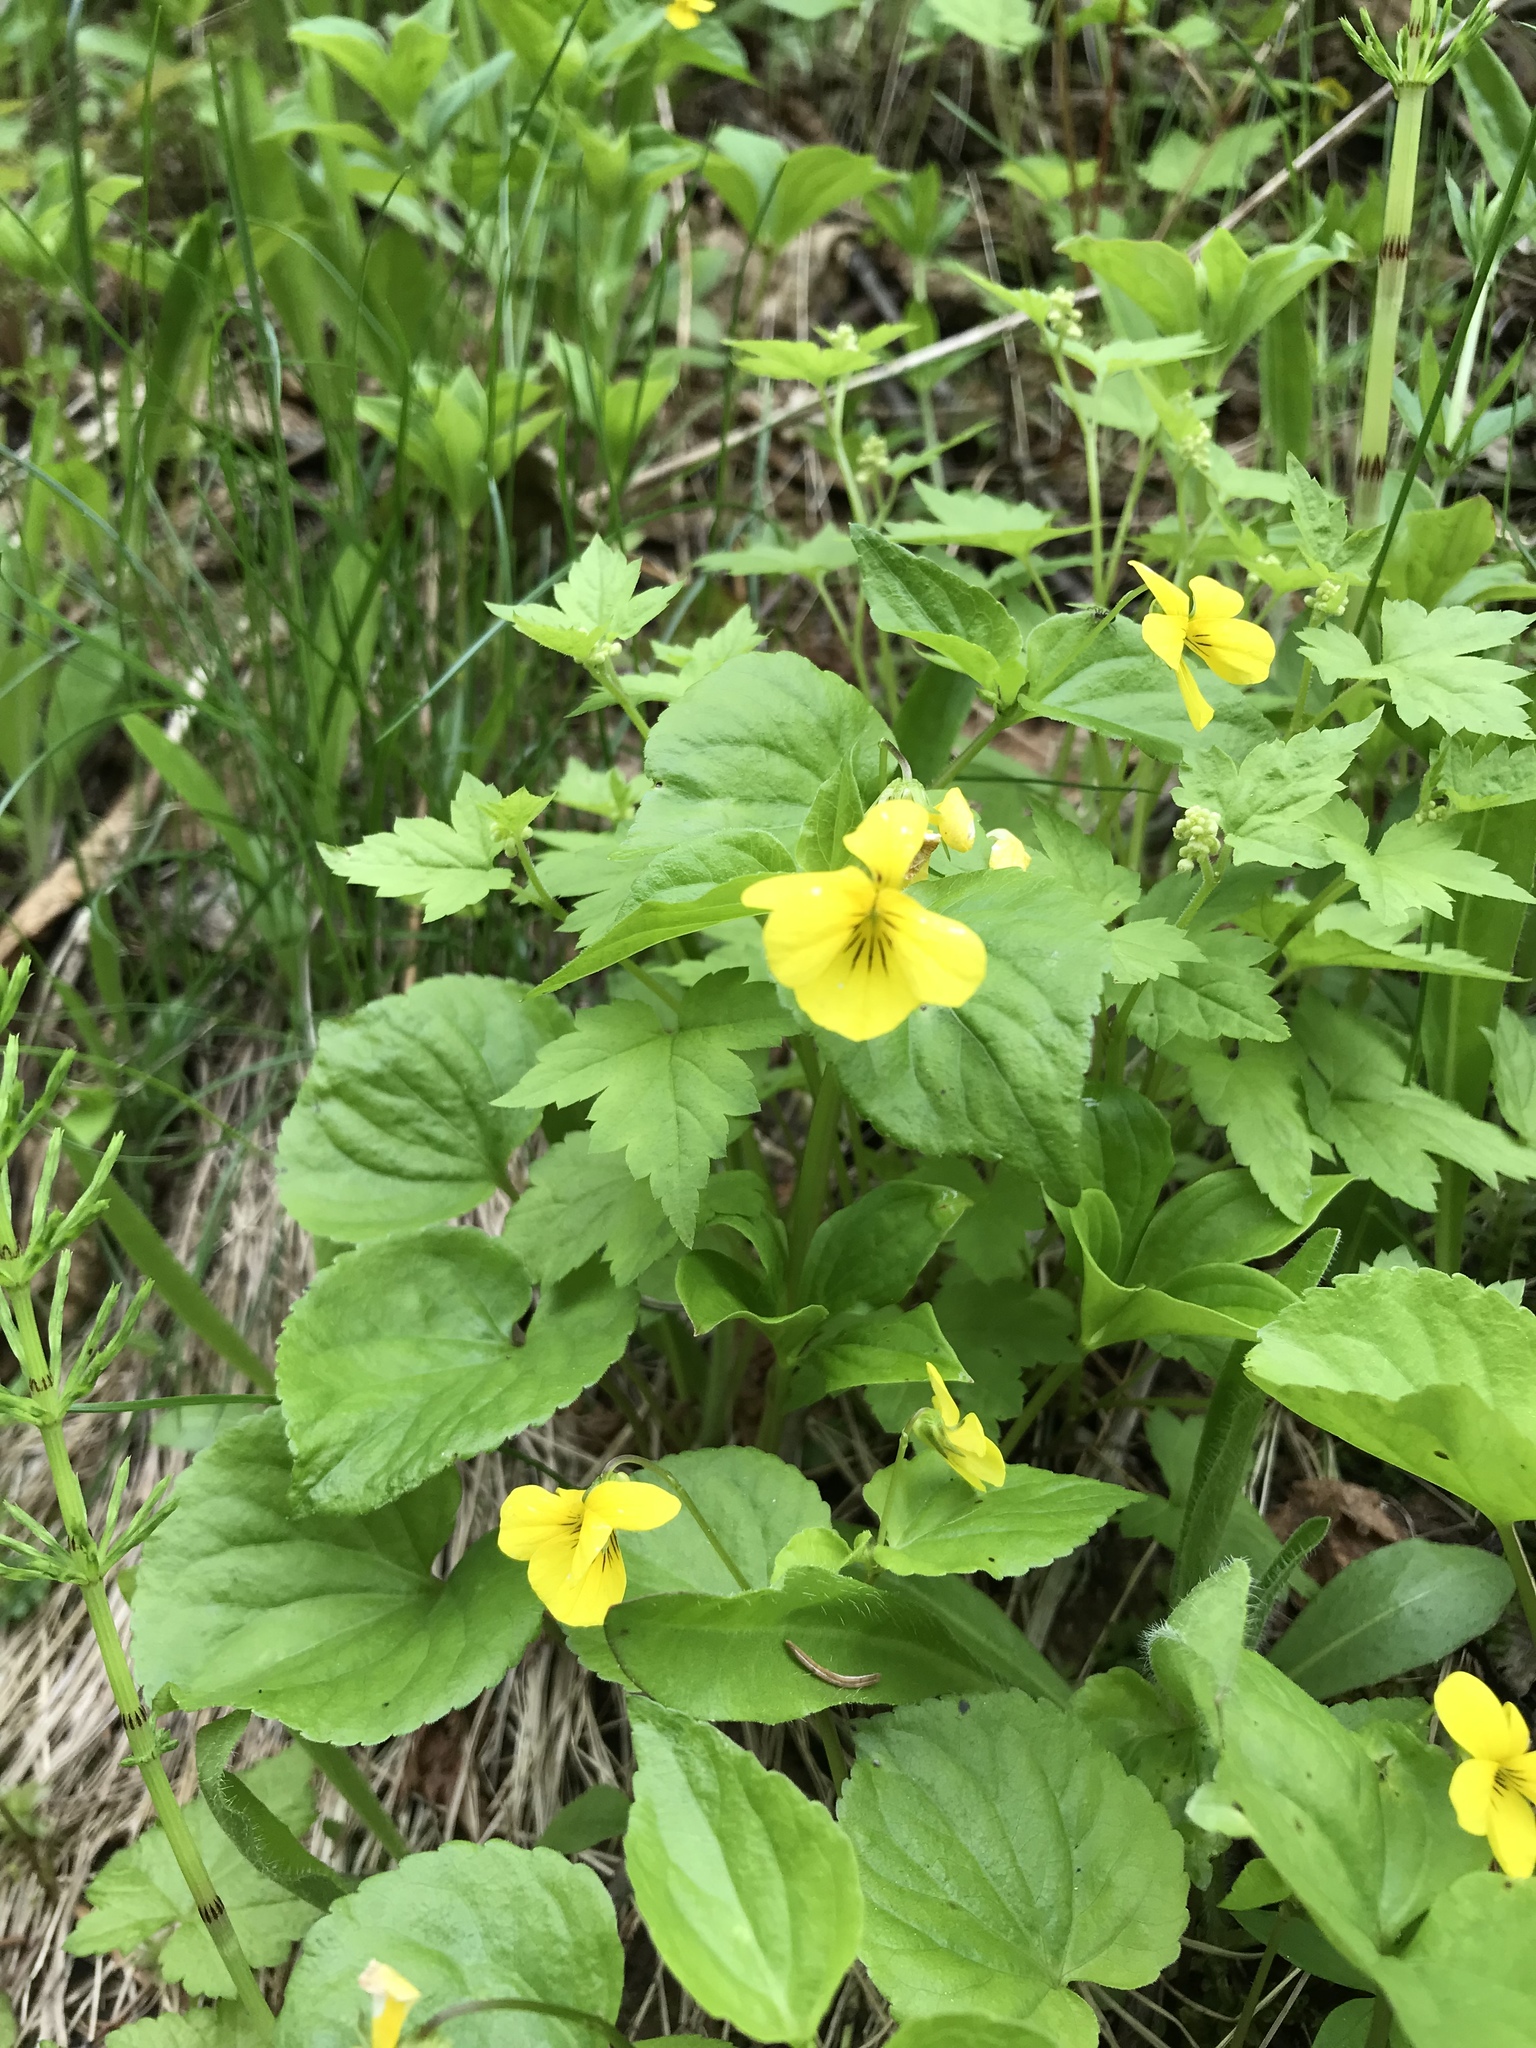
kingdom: Plantae
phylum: Tracheophyta
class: Magnoliopsida
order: Malpighiales
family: Violaceae
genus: Viola
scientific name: Viola glabella
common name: Stream violet
